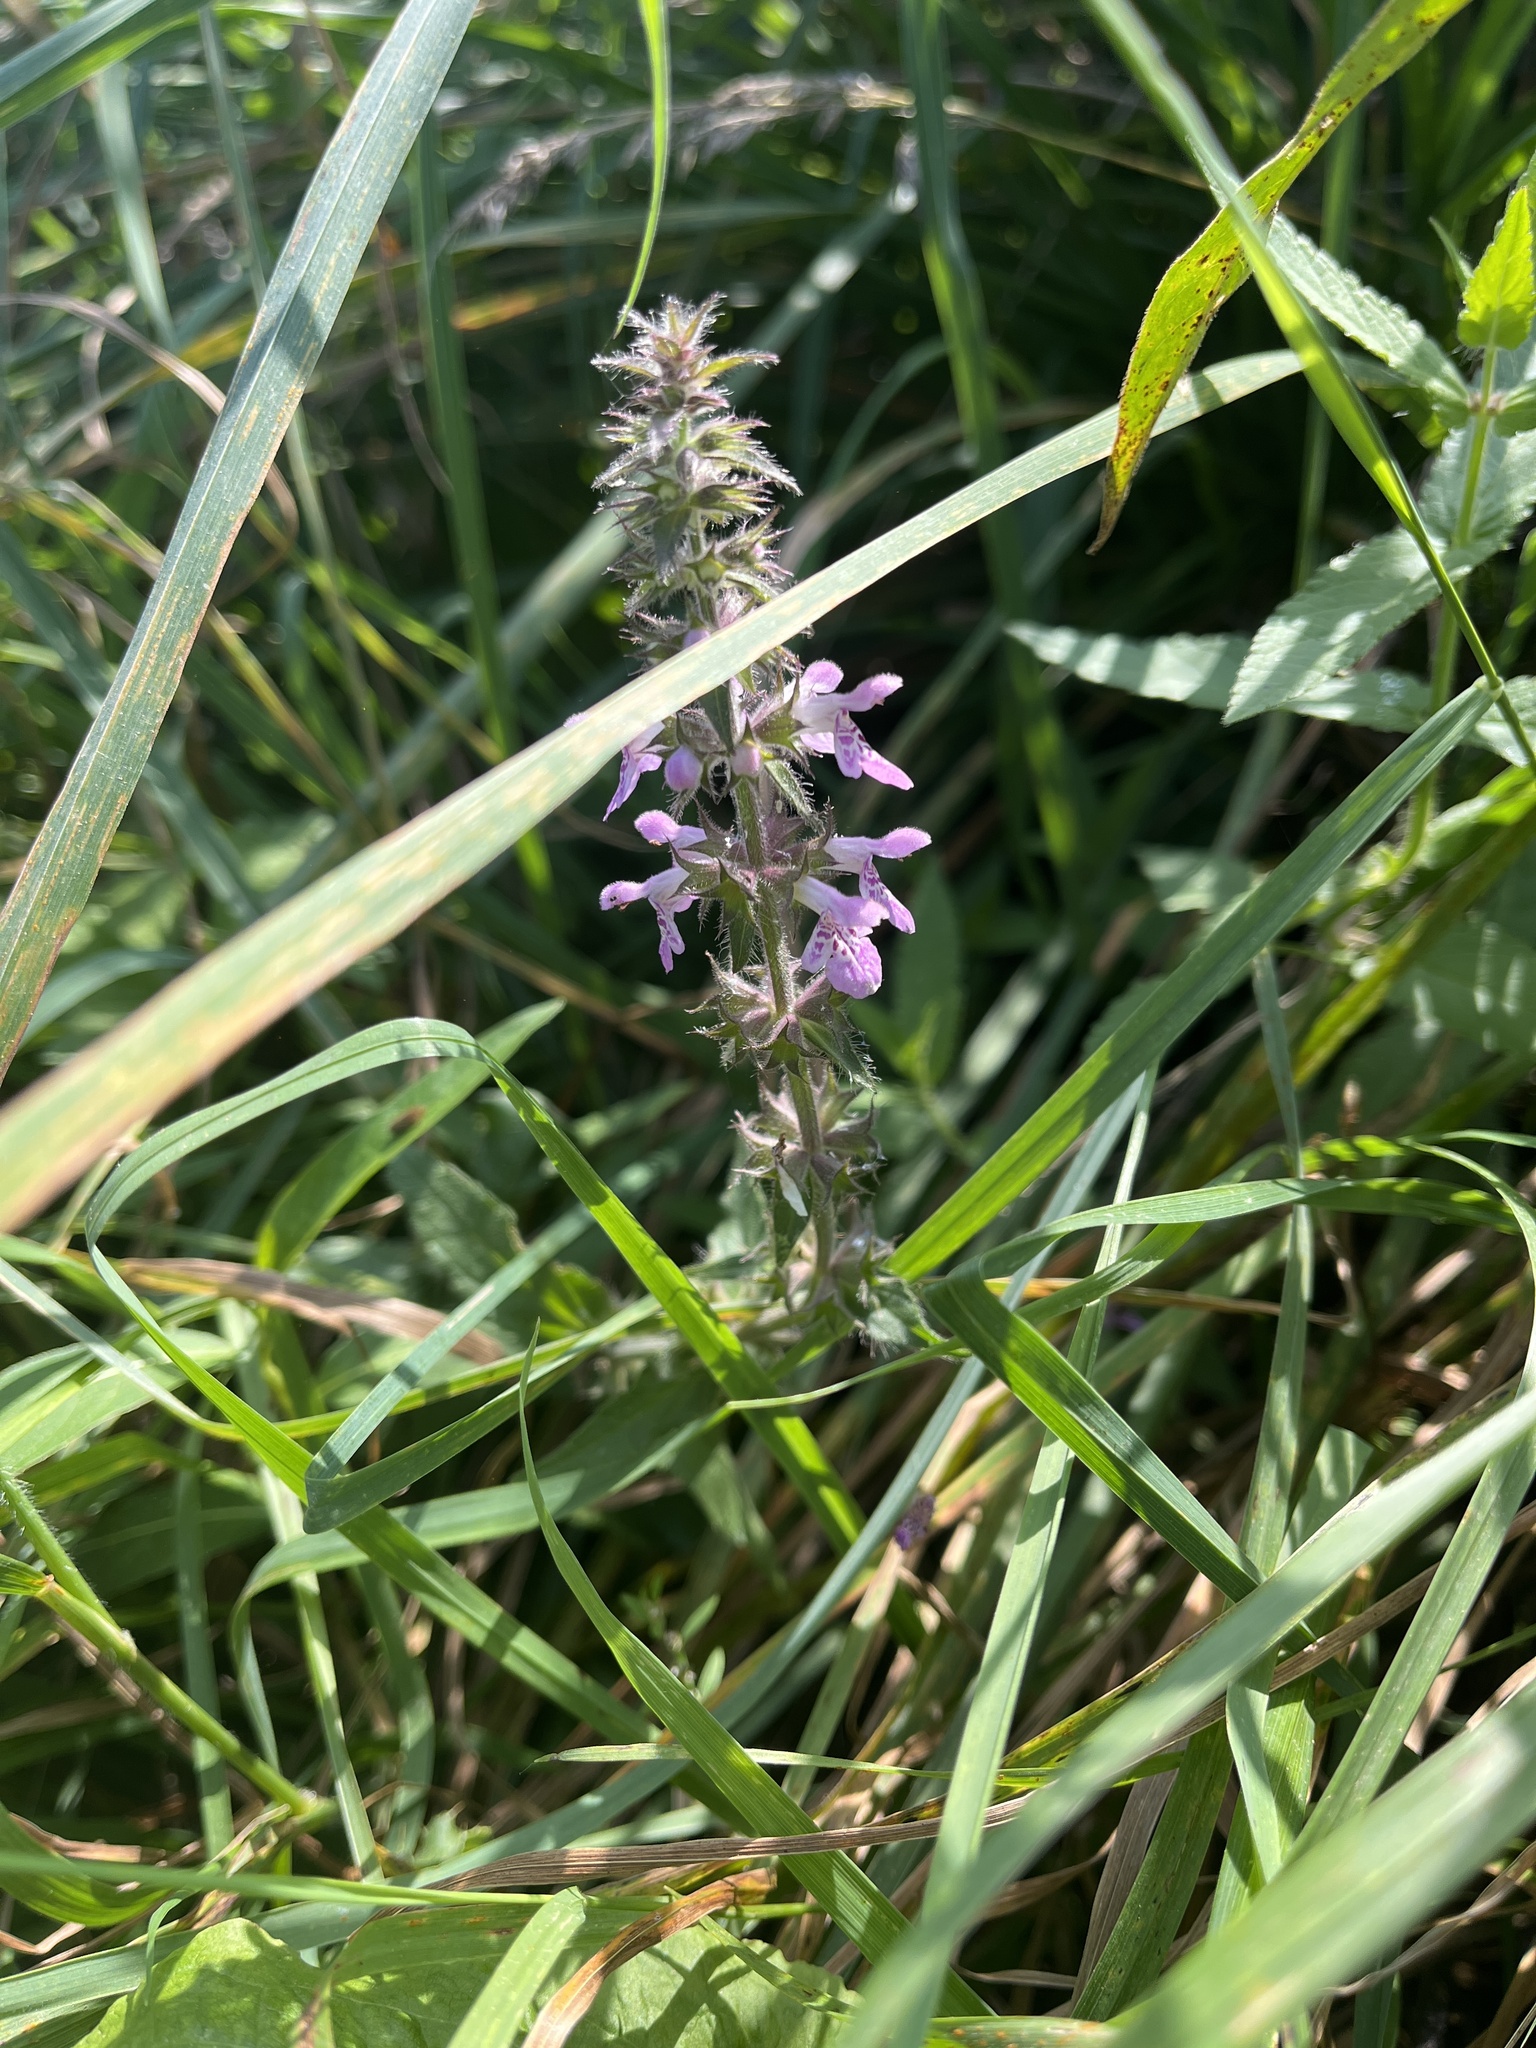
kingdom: Plantae
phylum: Tracheophyta
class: Magnoliopsida
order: Lamiales
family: Lamiaceae
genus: Stachys
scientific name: Stachys palustris
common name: Marsh woundwort
